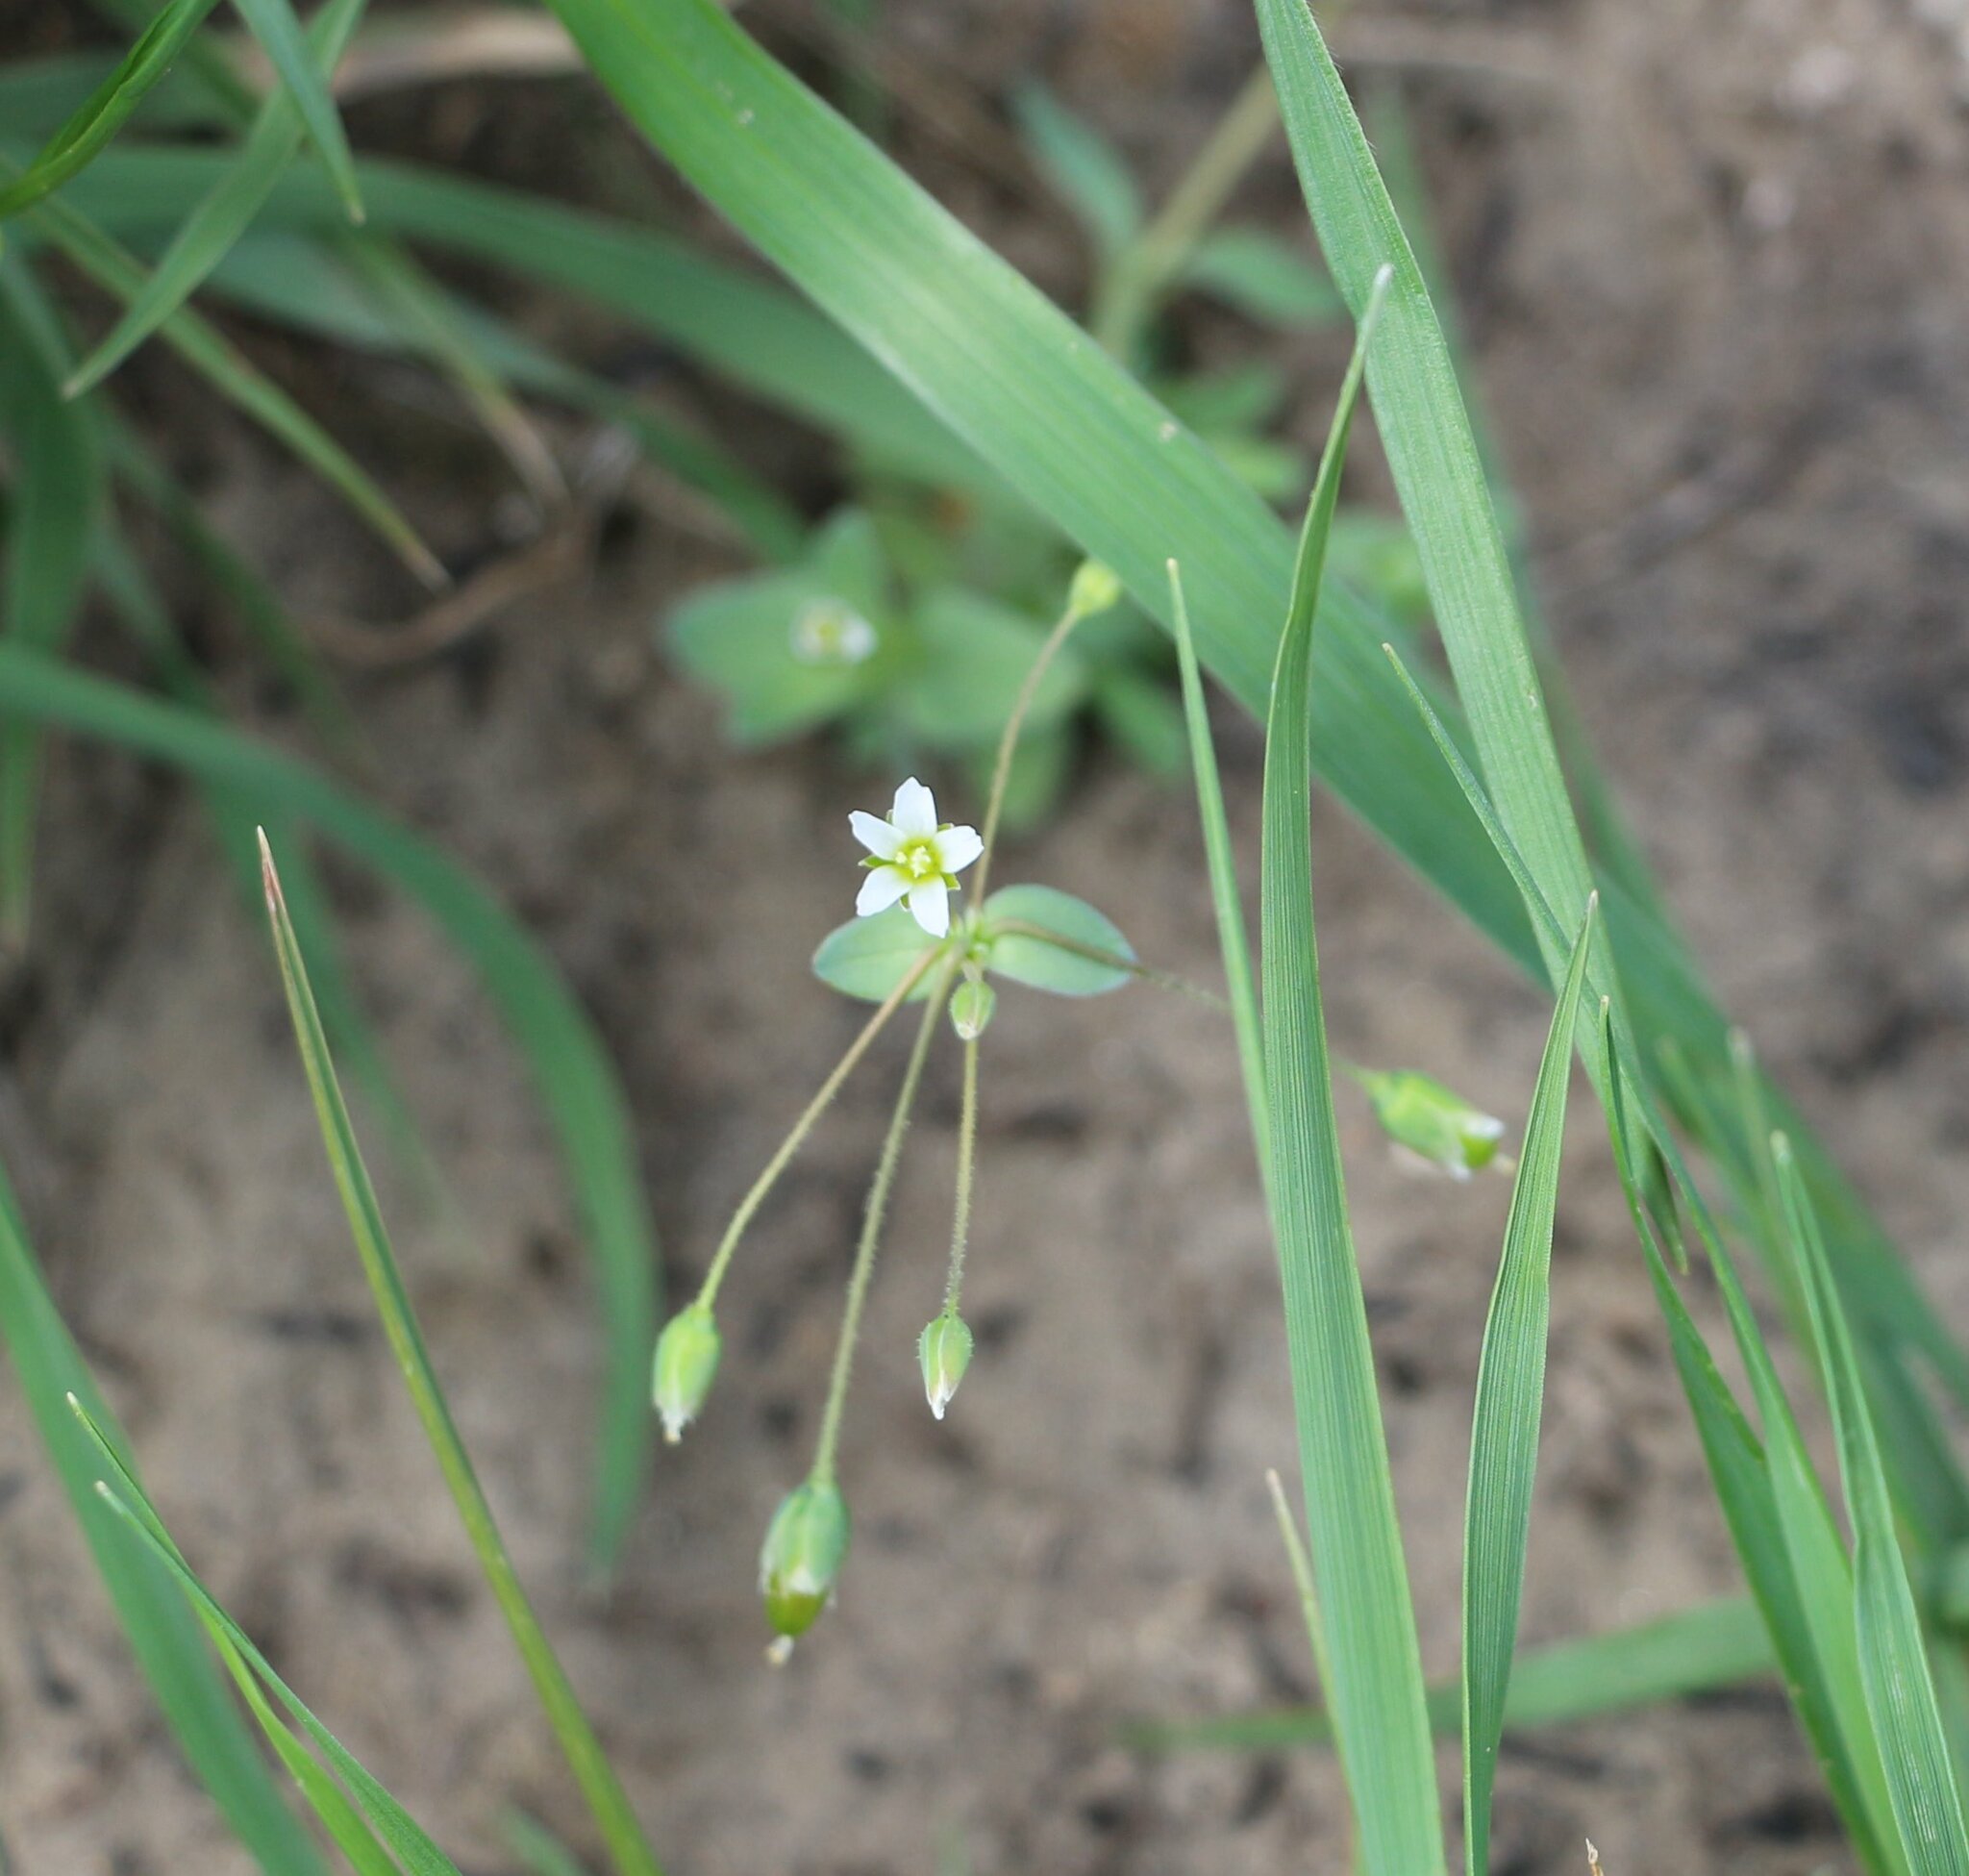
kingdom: Plantae
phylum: Tracheophyta
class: Magnoliopsida
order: Caryophyllales
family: Caryophyllaceae
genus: Holosteum
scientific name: Holosteum umbellatum
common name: Jagged chickweed
